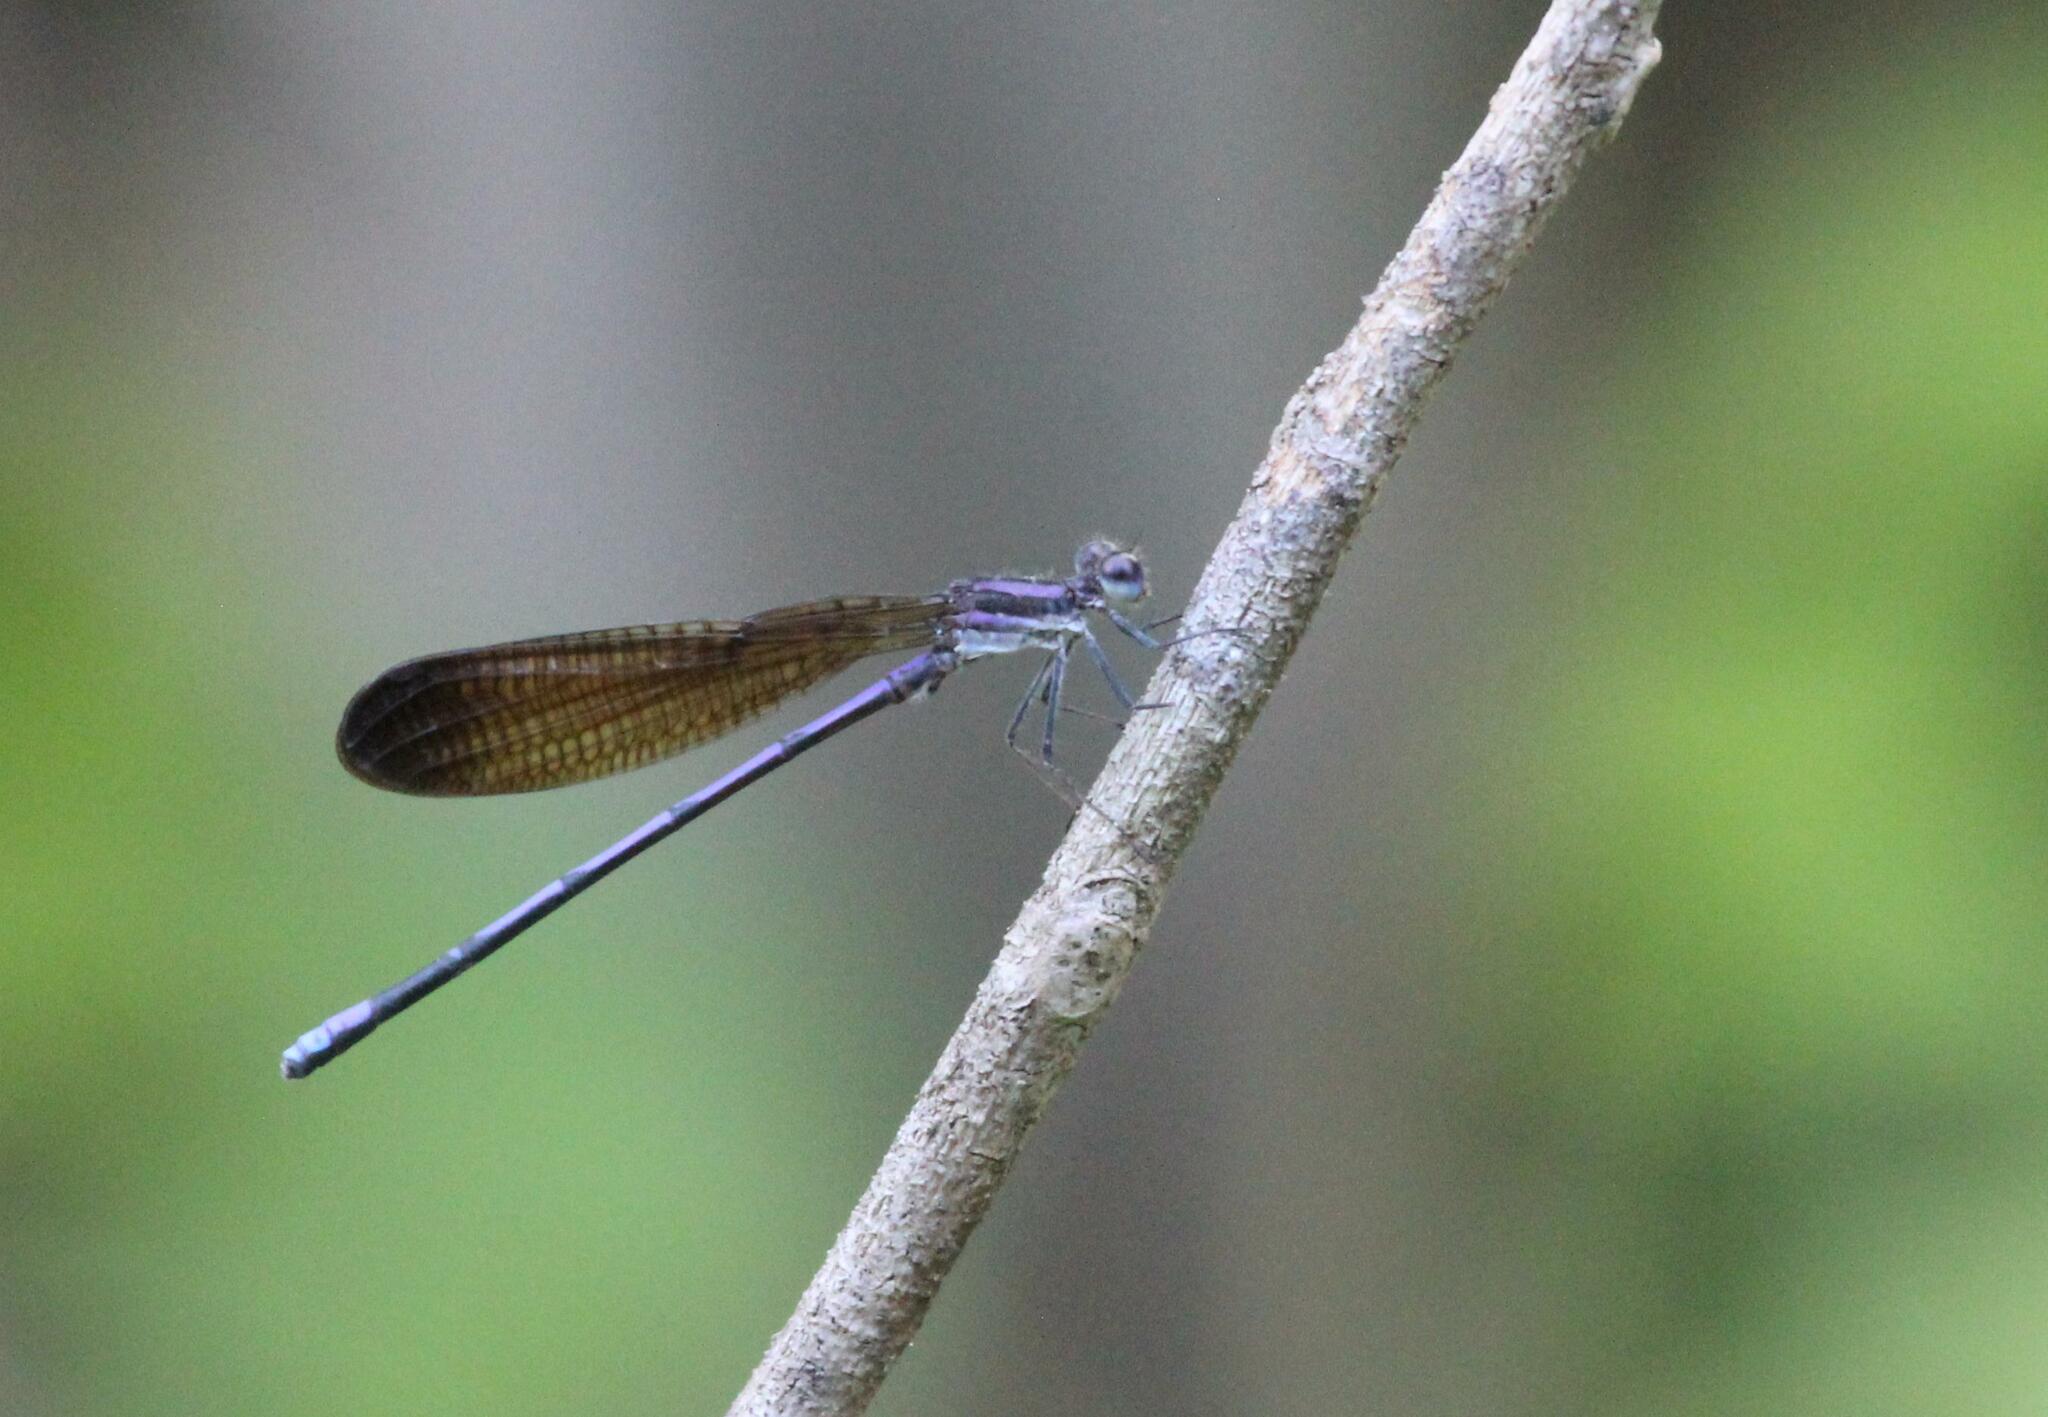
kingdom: Animalia
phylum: Arthropoda
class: Insecta
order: Odonata
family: Coenagrionidae
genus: Argia
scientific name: Argia fumipennis
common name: Variable dancer
